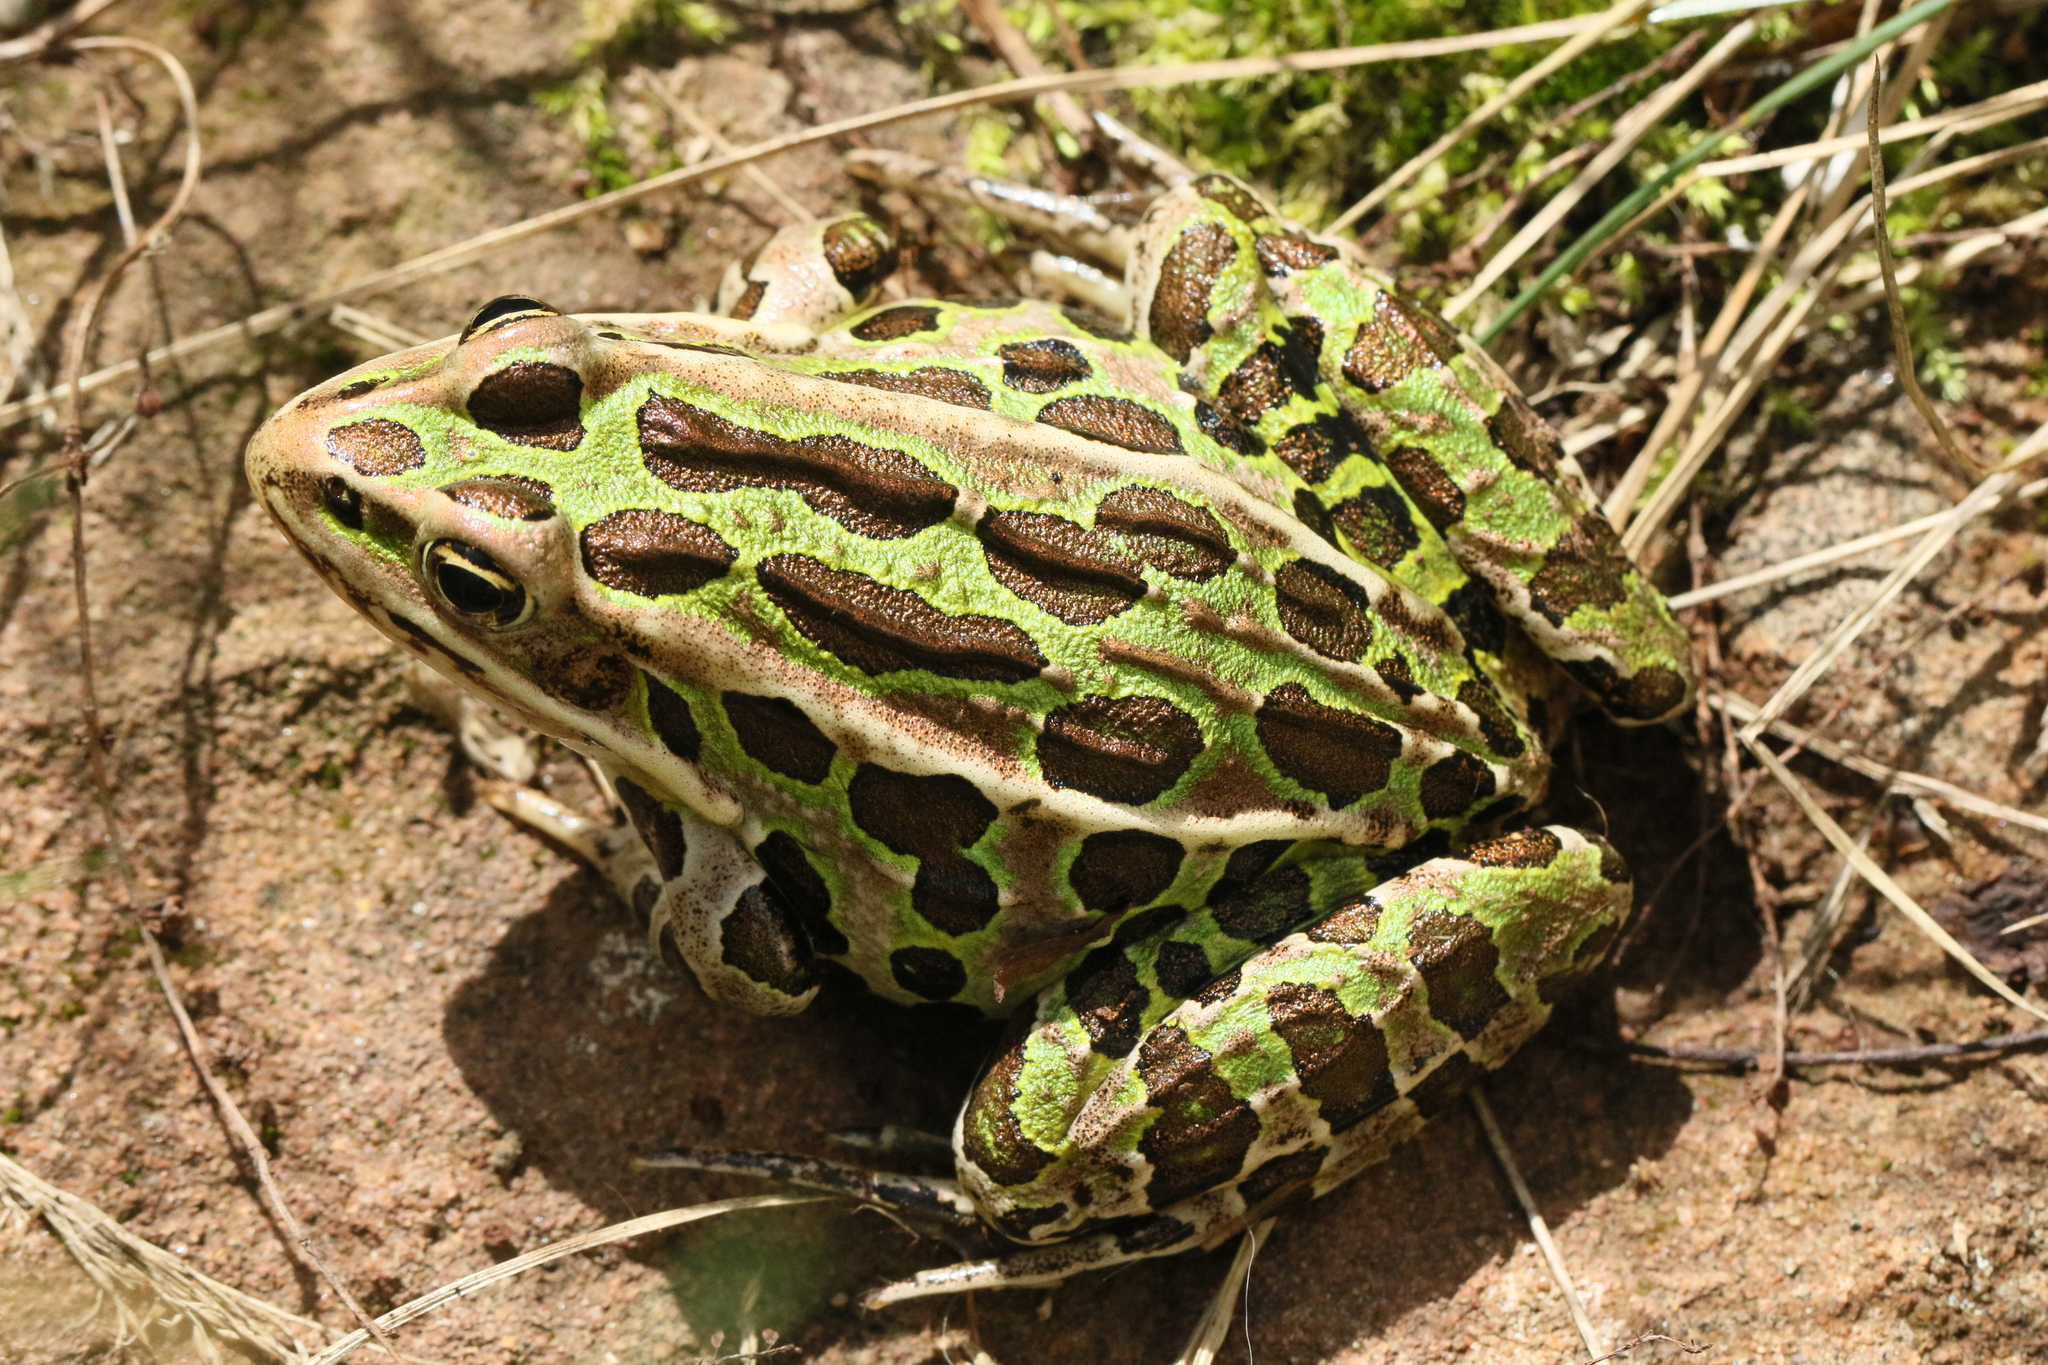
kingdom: Animalia
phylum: Chordata
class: Amphibia
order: Anura
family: Ranidae
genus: Lithobates
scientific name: Lithobates pipiens
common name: Northern leopard frog
